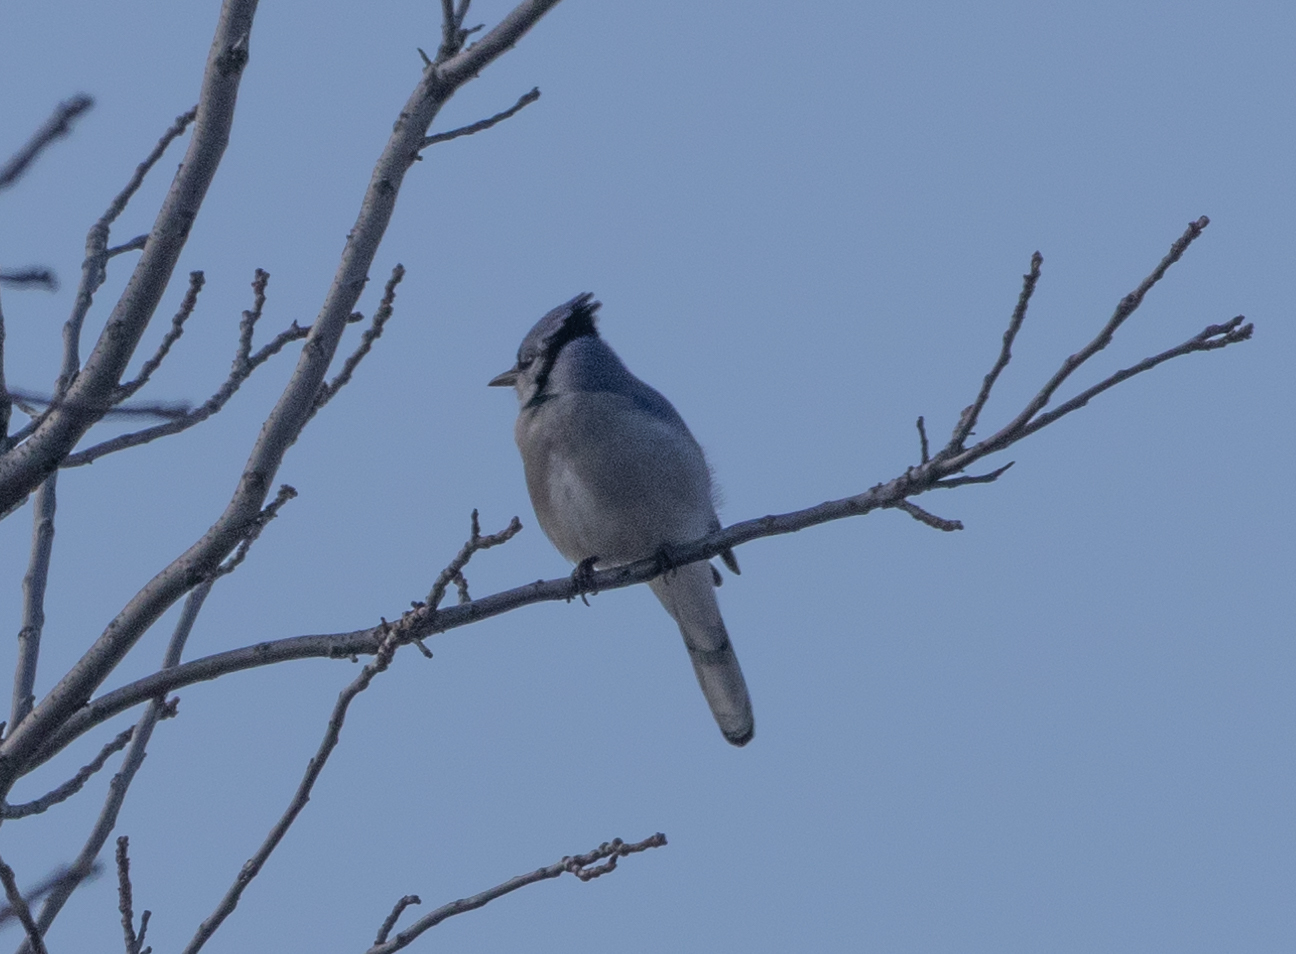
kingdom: Animalia
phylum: Chordata
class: Aves
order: Passeriformes
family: Corvidae
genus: Cyanocitta
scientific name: Cyanocitta cristata
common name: Blue jay
